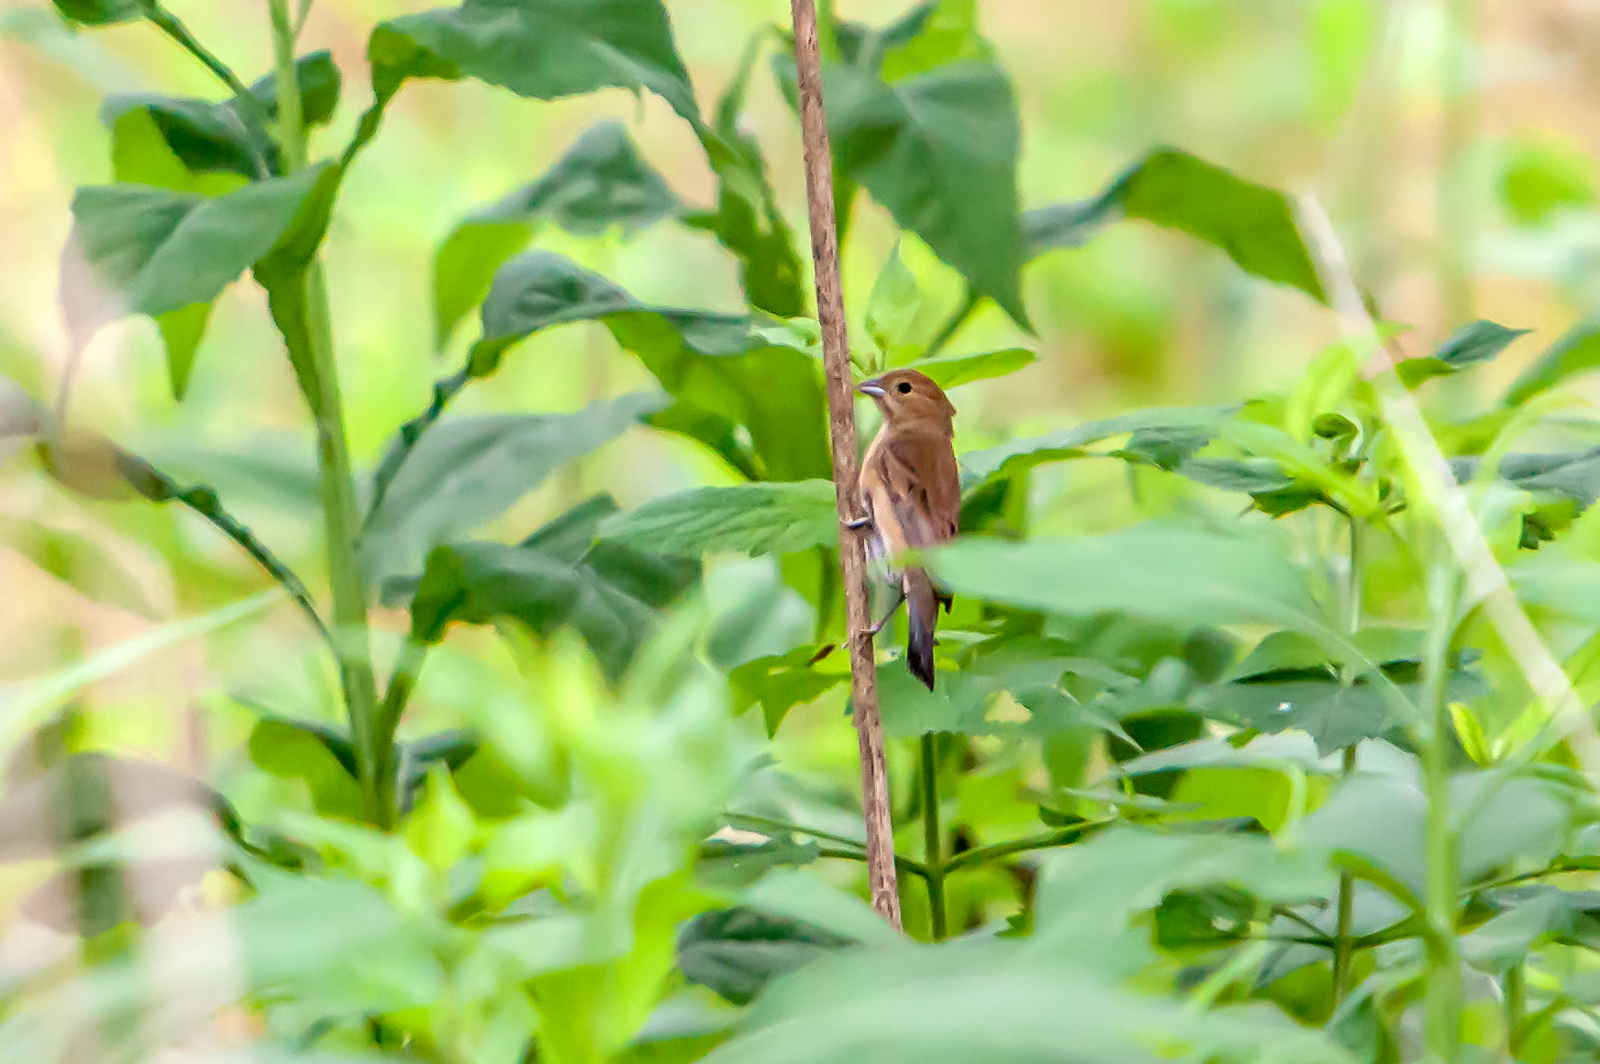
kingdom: Animalia
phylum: Chordata
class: Aves
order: Passeriformes
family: Cardinalidae
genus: Passerina
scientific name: Passerina cyanea
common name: Indigo bunting
